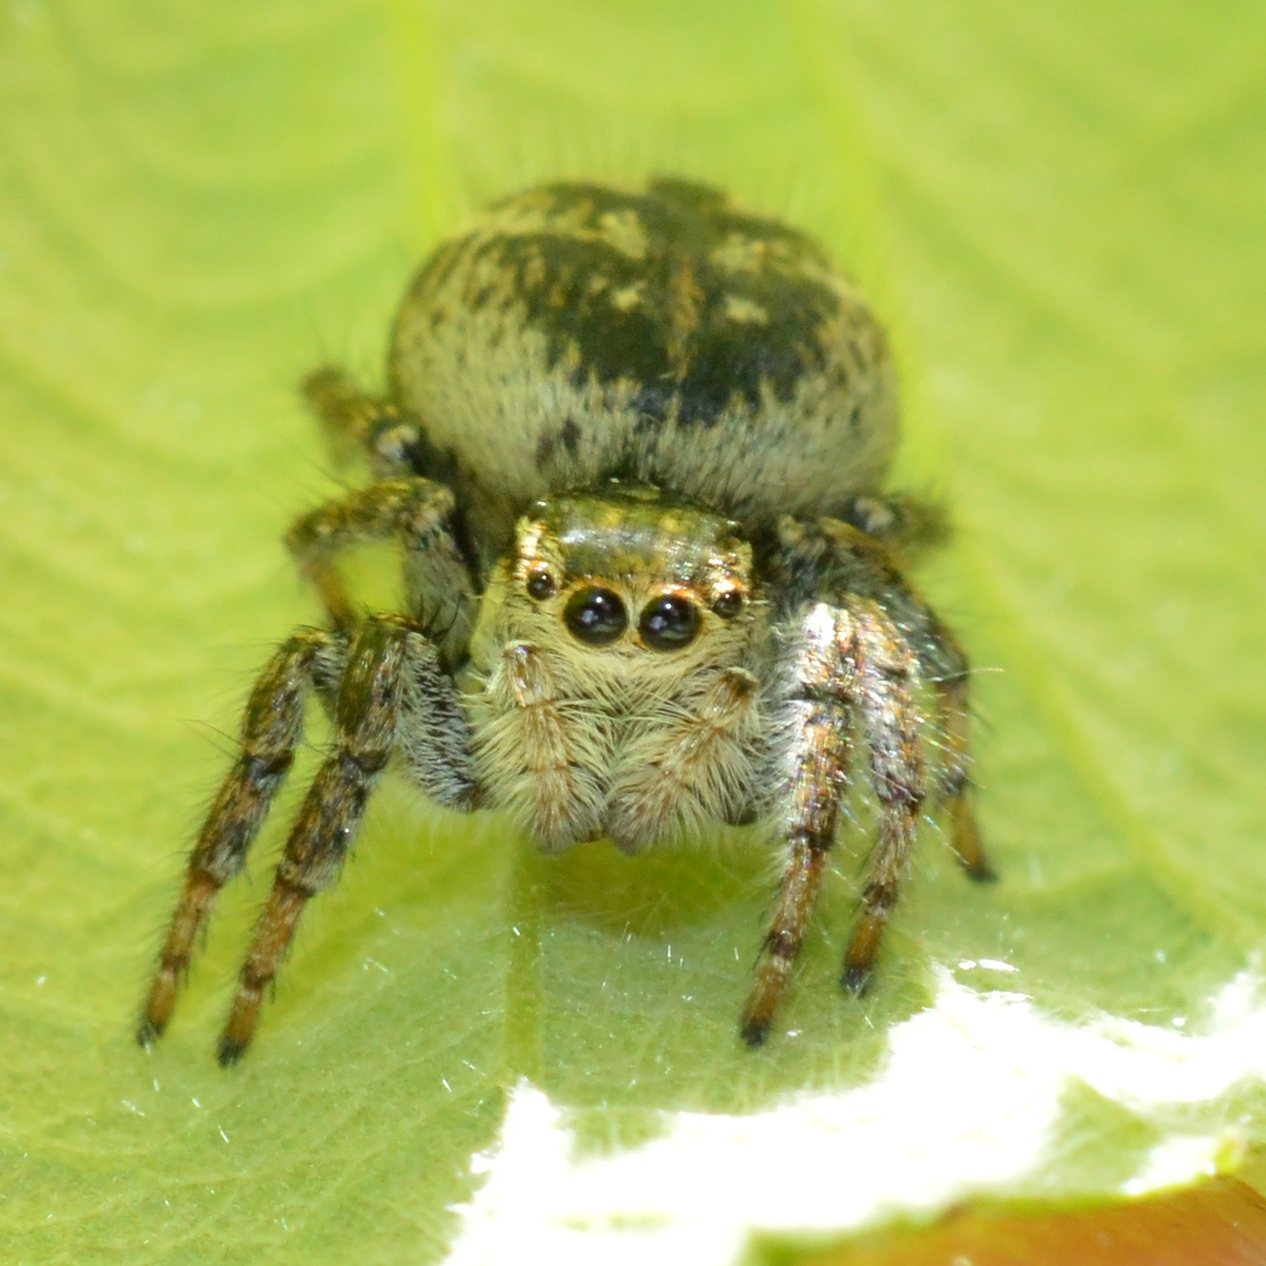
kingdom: Animalia
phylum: Arthropoda
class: Arachnida
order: Araneae
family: Salticidae
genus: Carrhotus
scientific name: Carrhotus xanthogramma
